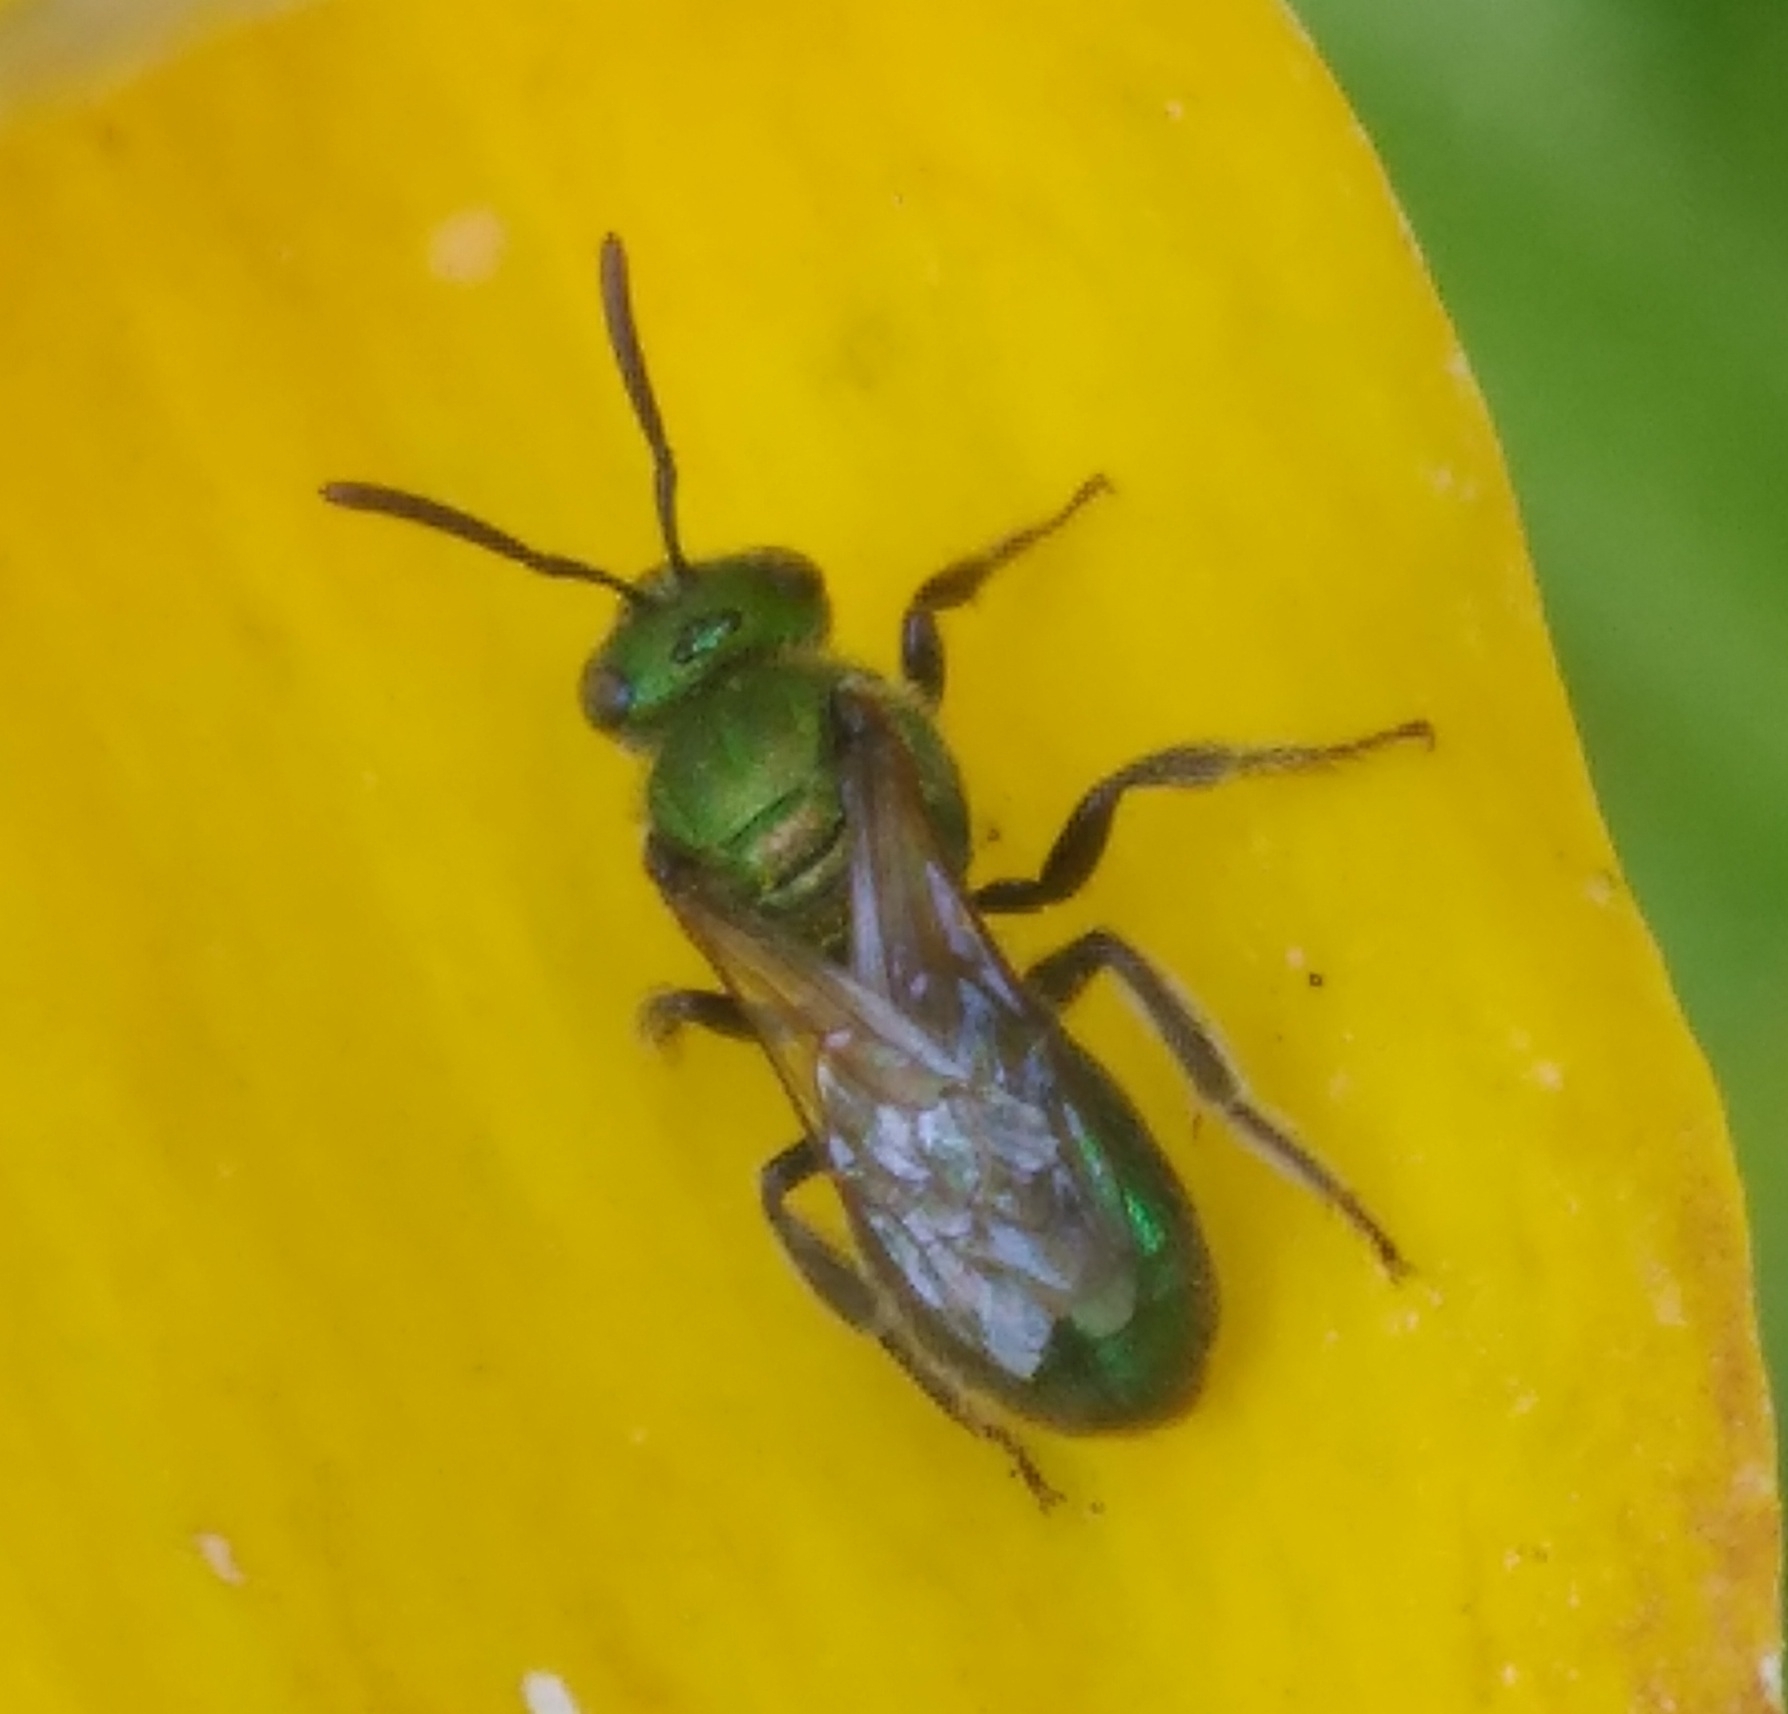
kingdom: Animalia
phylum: Arthropoda
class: Insecta
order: Hymenoptera
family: Halictidae
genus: Augochlorella
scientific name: Augochlorella aurata
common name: Golden sweat bee
